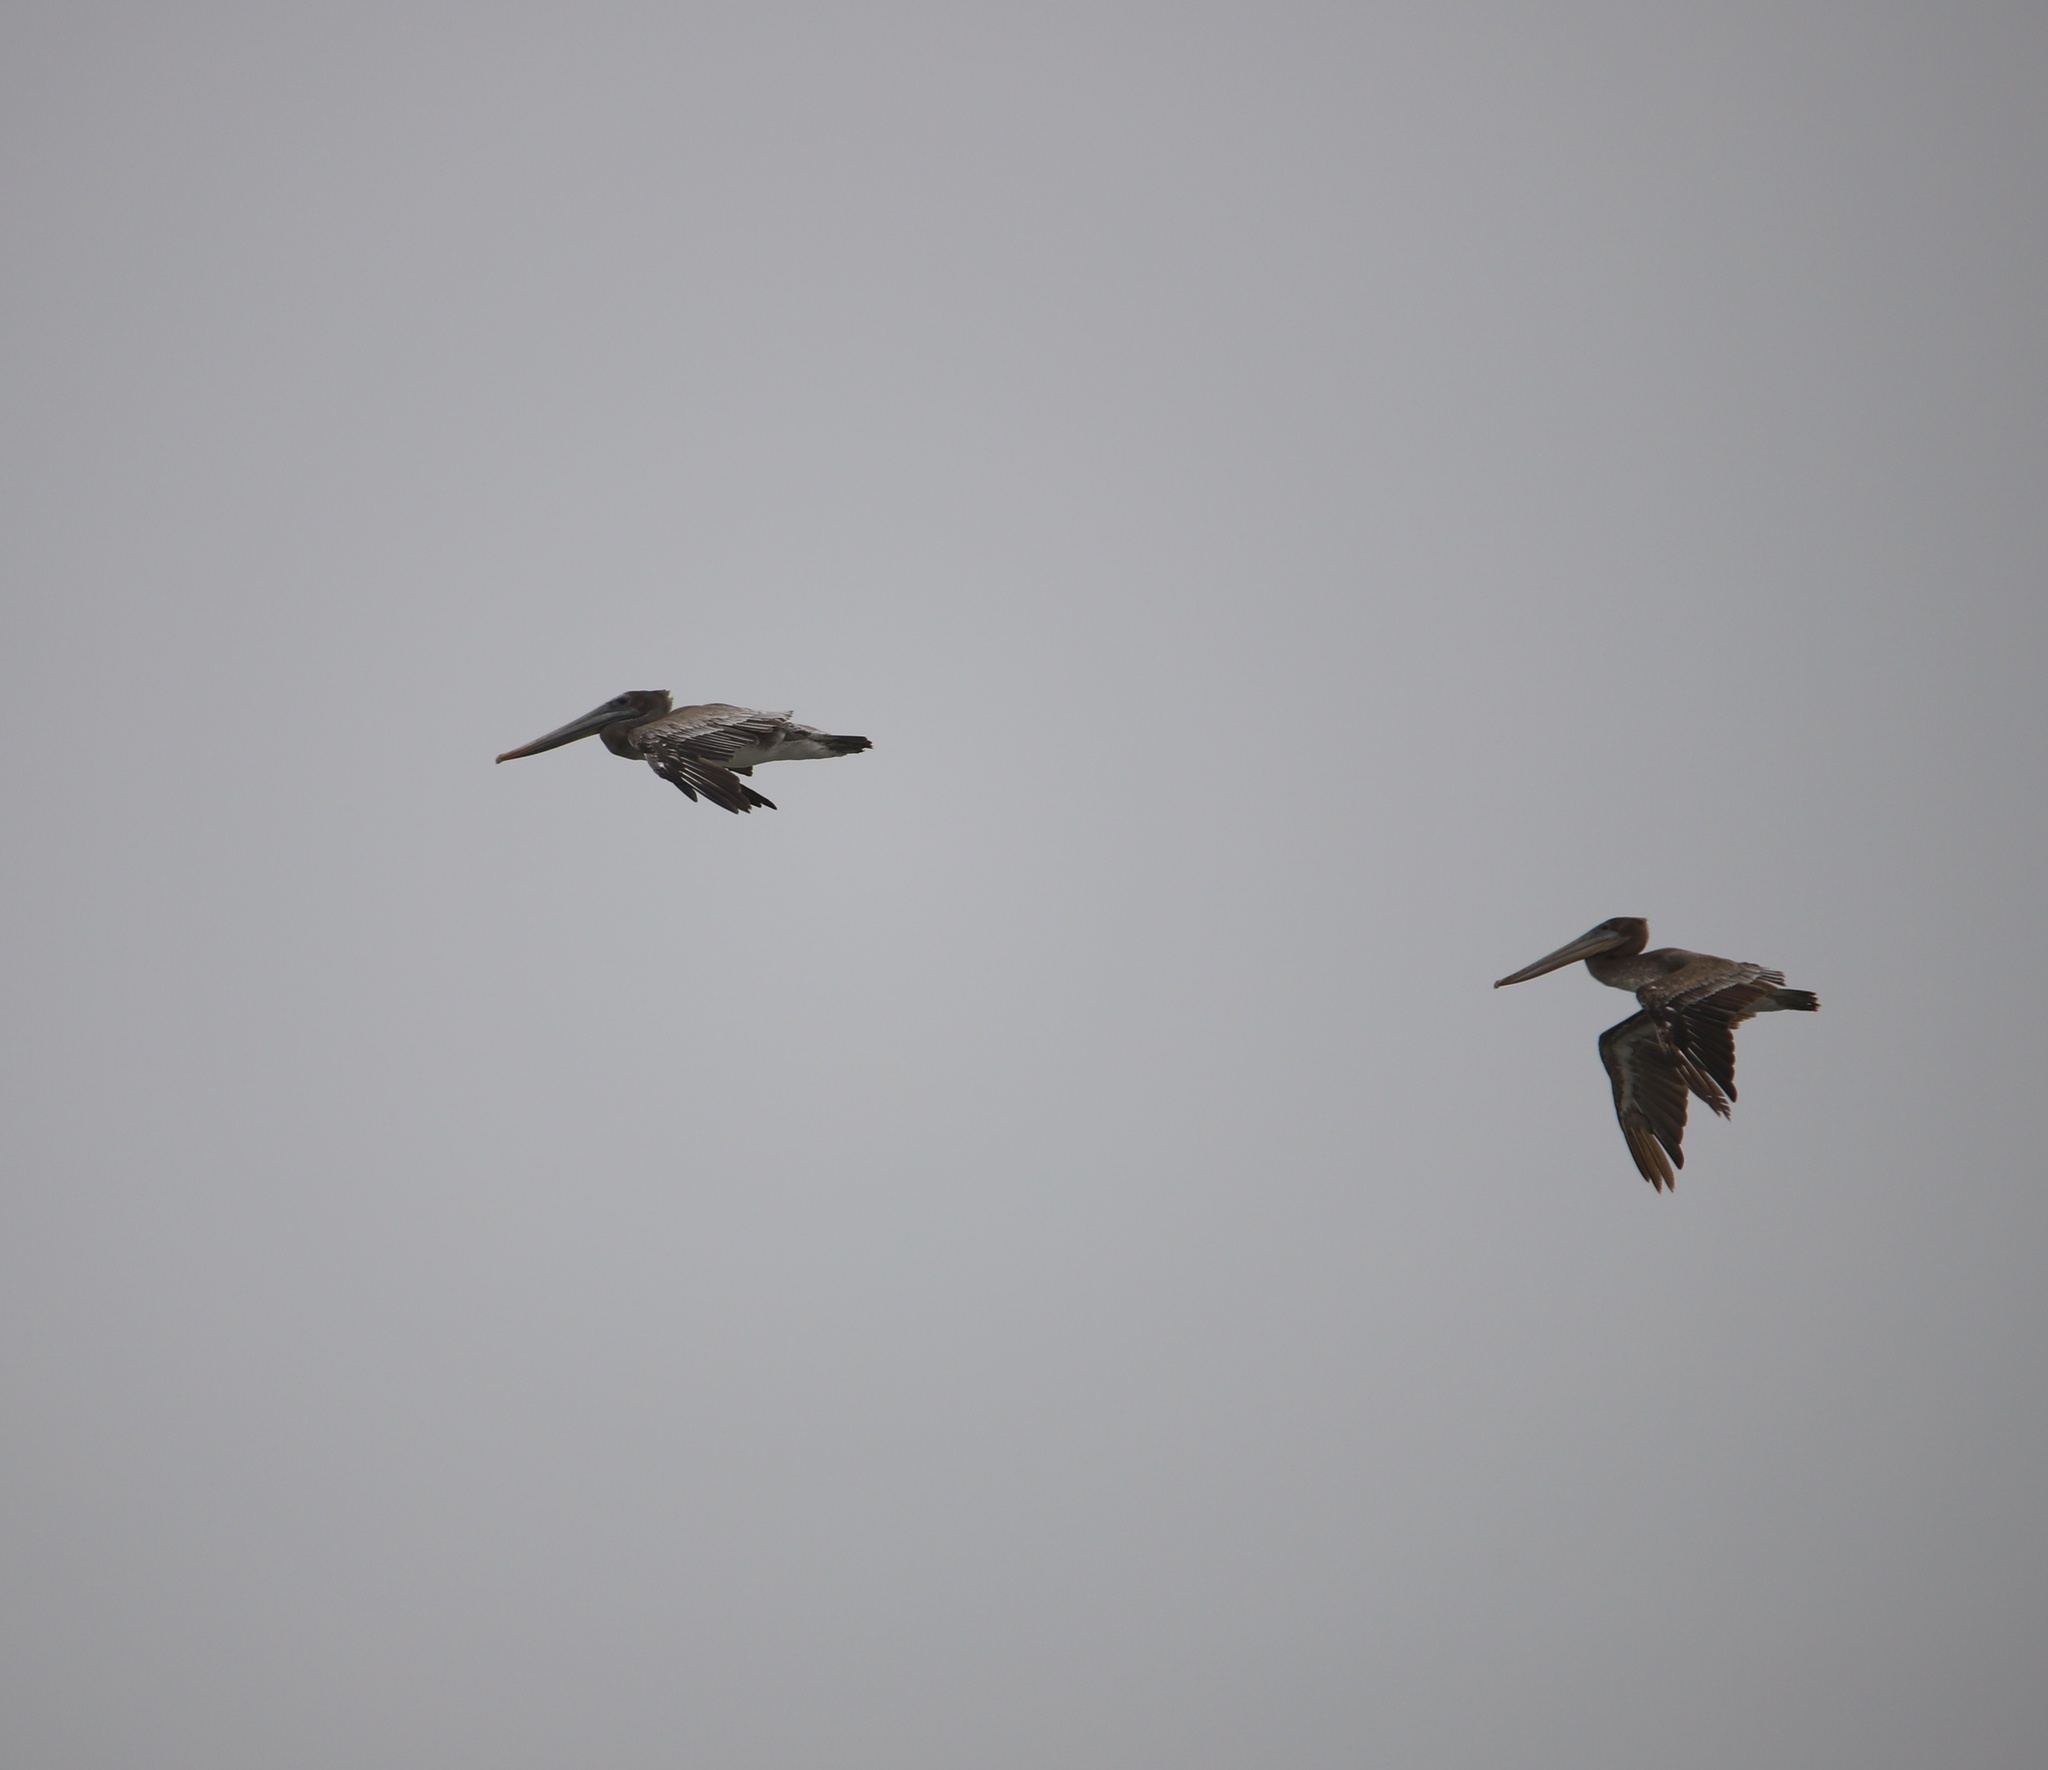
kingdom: Animalia
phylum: Chordata
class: Aves
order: Pelecaniformes
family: Pelecanidae
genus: Pelecanus
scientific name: Pelecanus occidentalis
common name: Brown pelican
